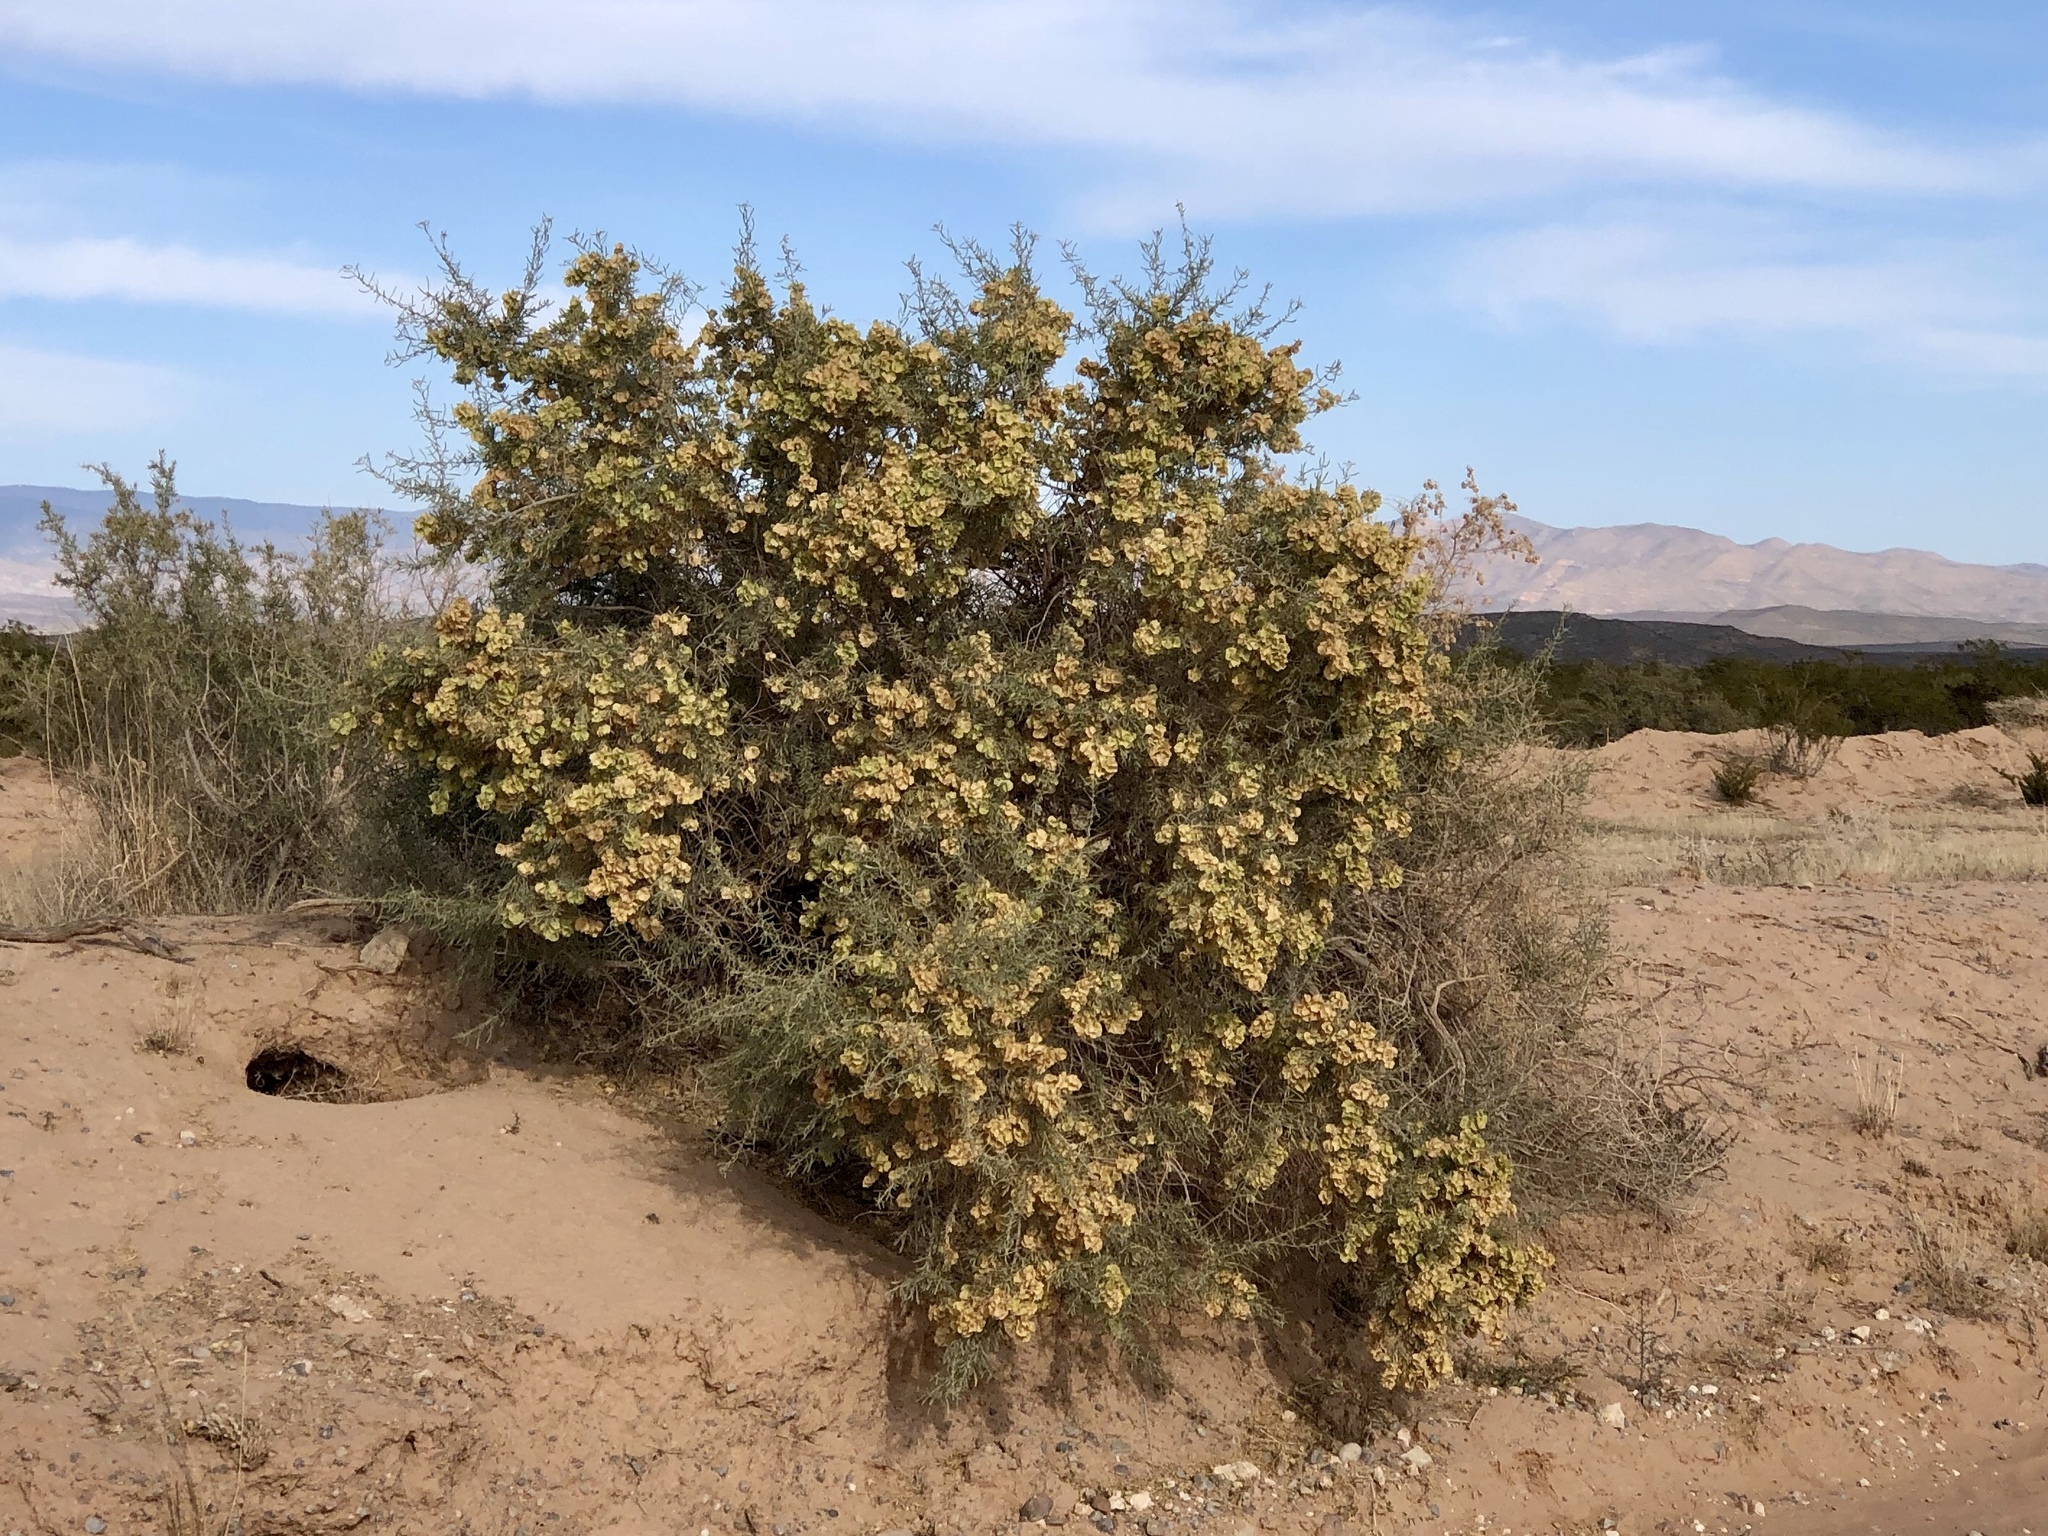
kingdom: Plantae
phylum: Tracheophyta
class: Magnoliopsida
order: Caryophyllales
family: Amaranthaceae
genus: Atriplex
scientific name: Atriplex canescens
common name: Four-wing saltbush
